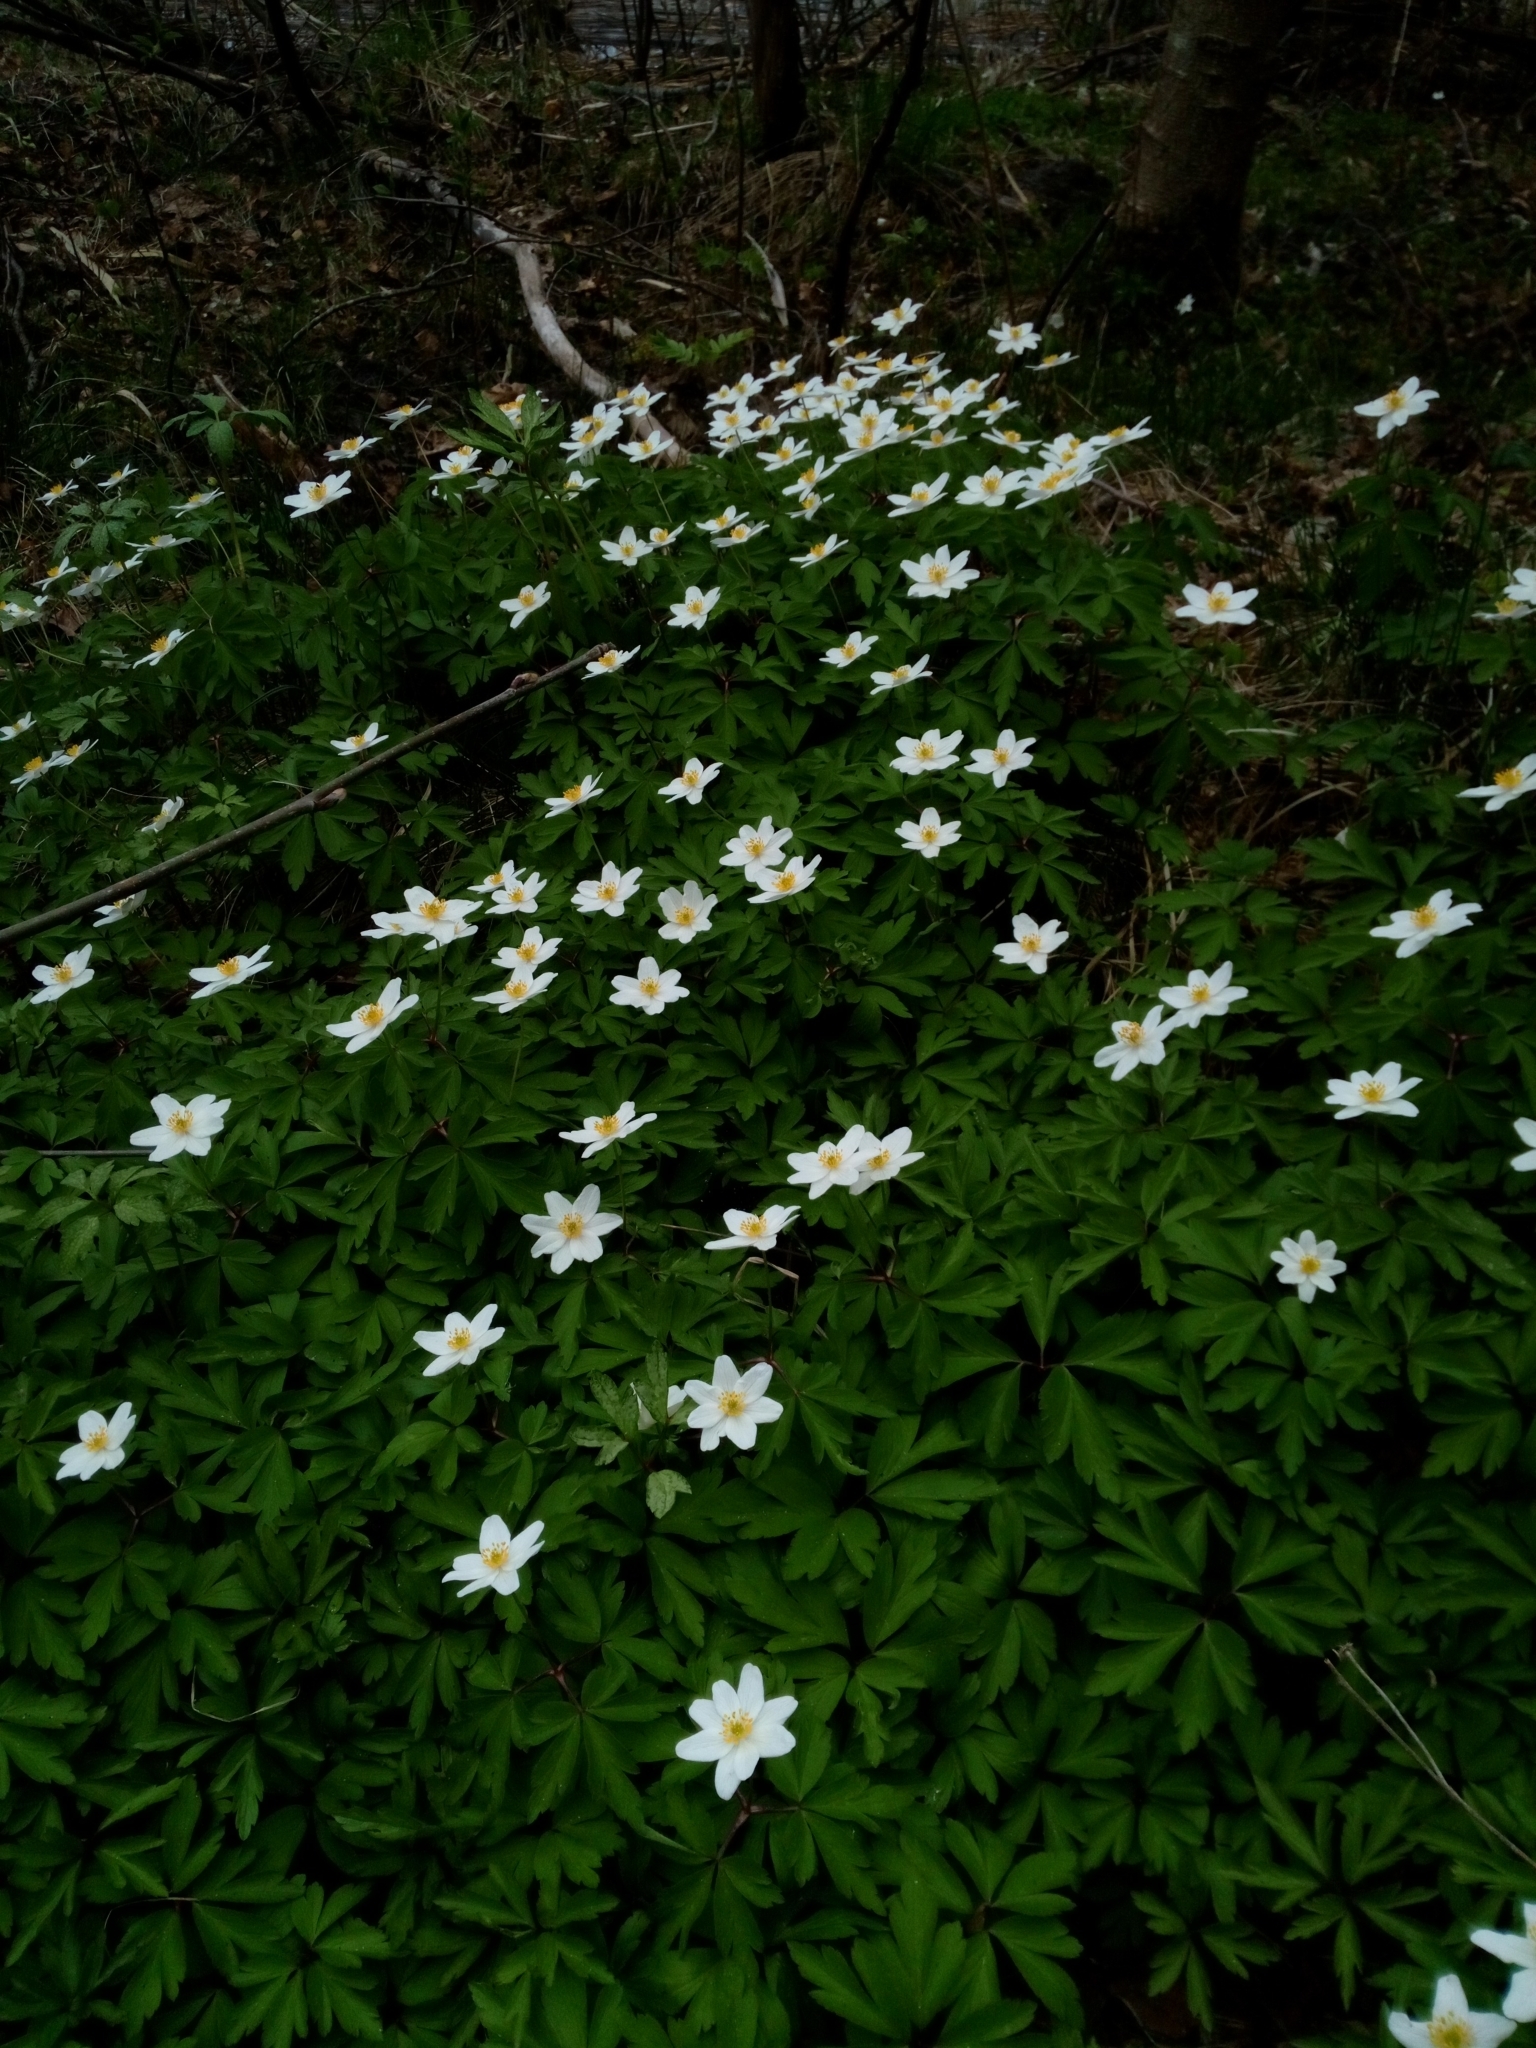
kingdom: Plantae
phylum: Tracheophyta
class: Magnoliopsida
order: Ranunculales
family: Ranunculaceae
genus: Anemone
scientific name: Anemone nemorosa
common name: Wood anemone
